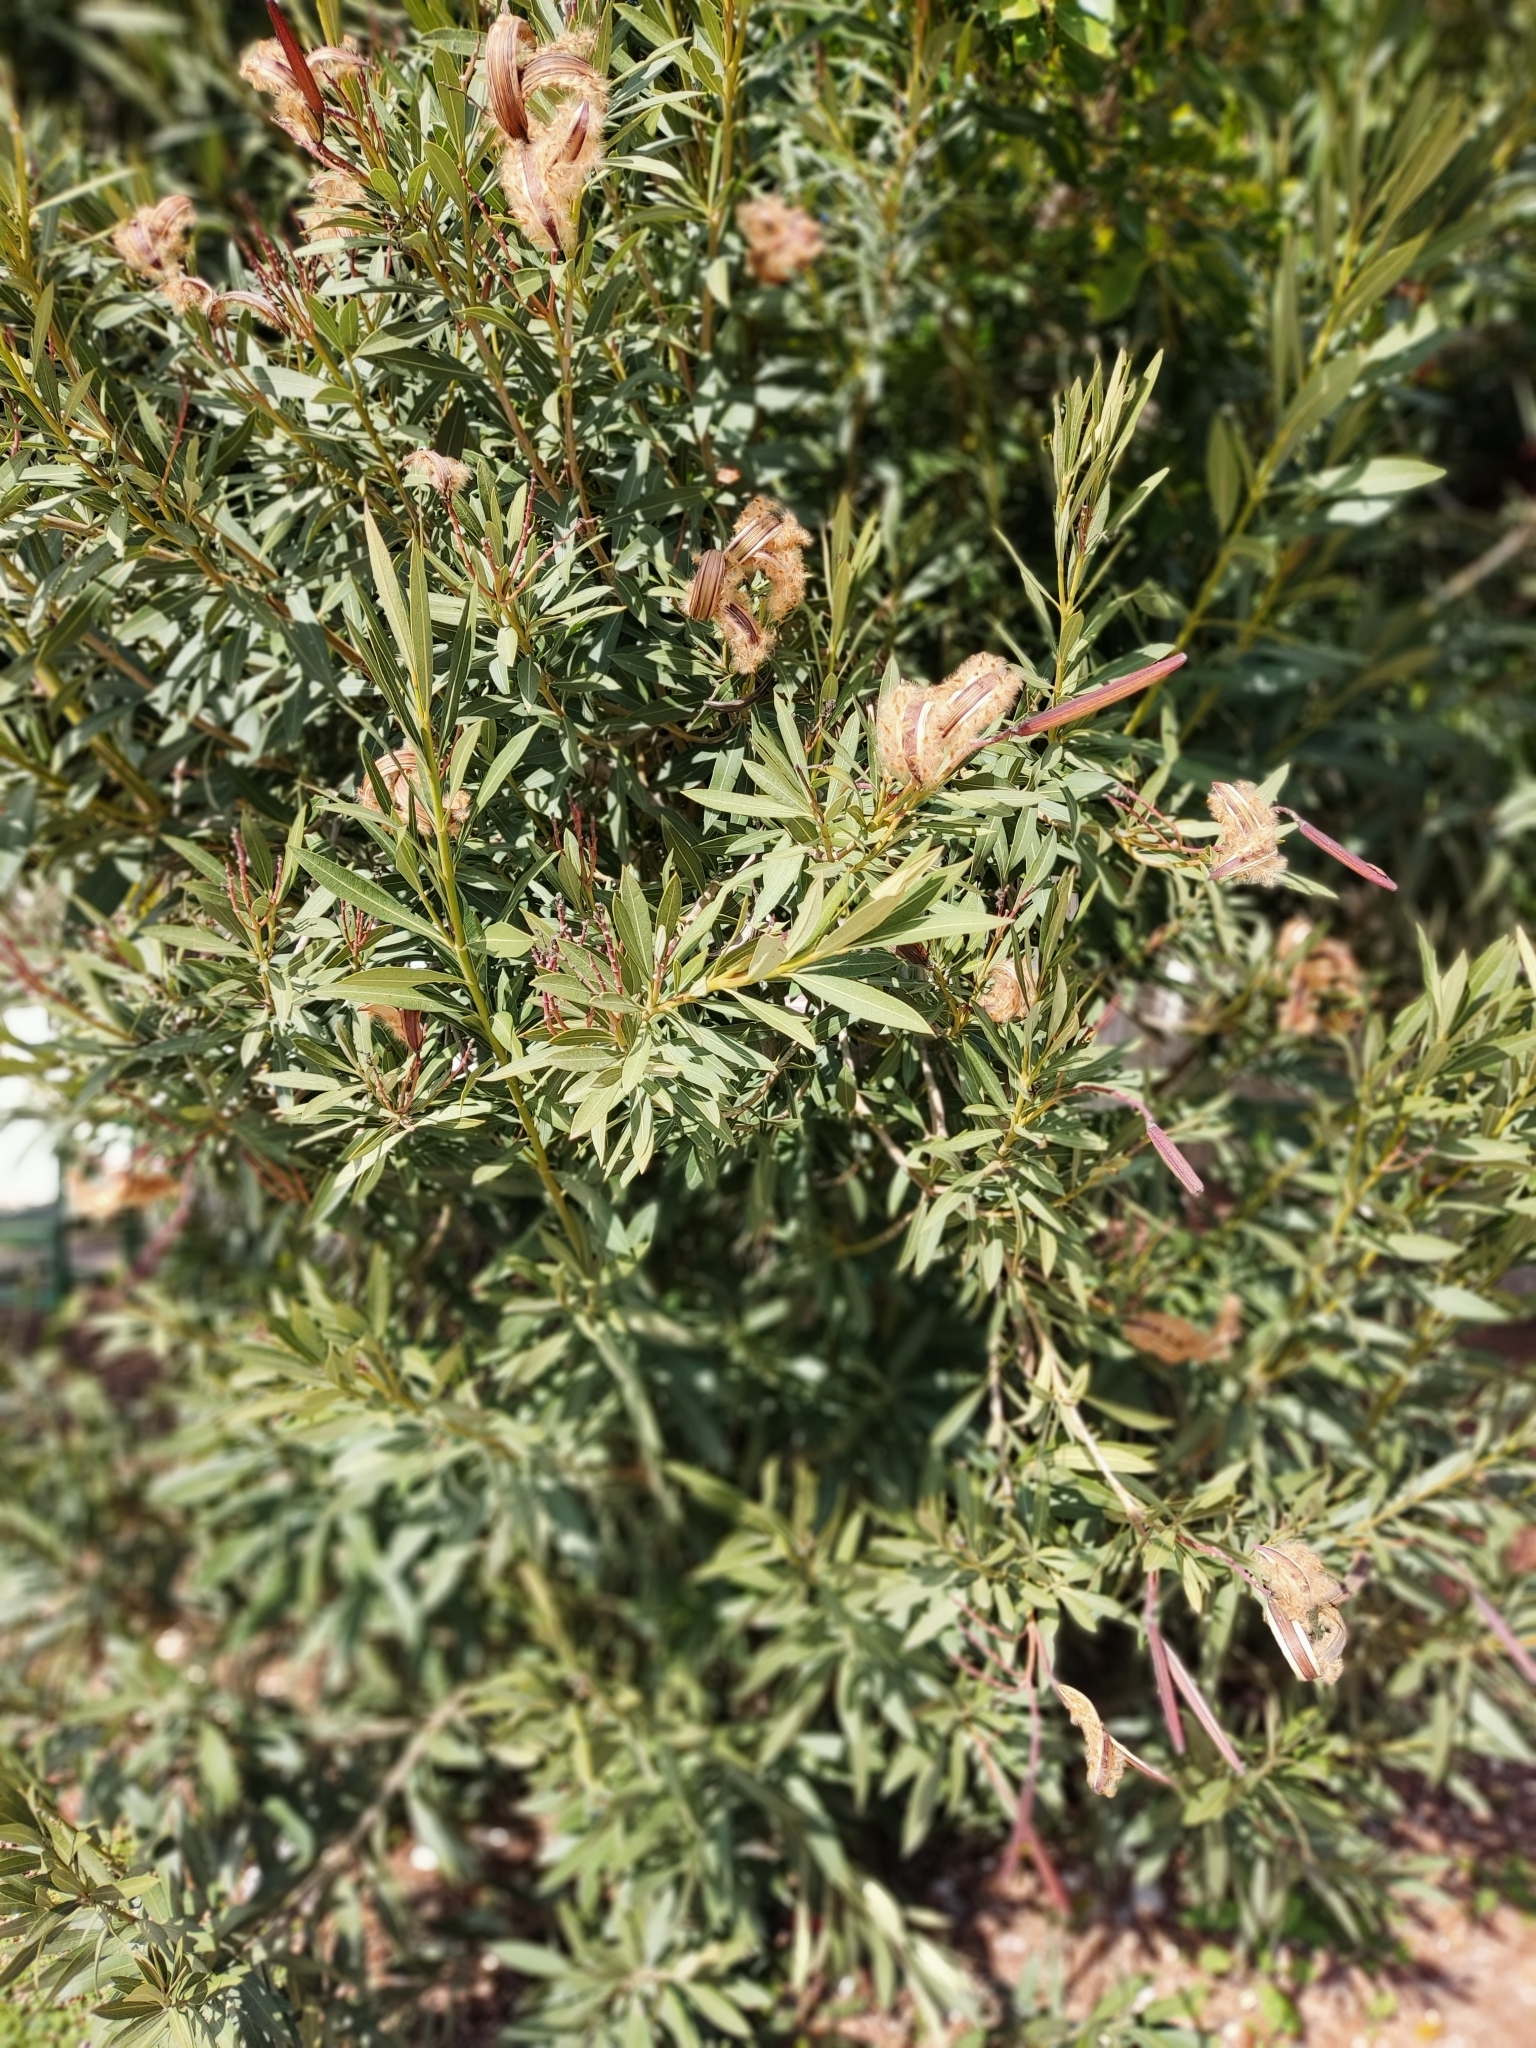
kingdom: Plantae
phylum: Tracheophyta
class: Magnoliopsida
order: Gentianales
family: Apocynaceae
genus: Nerium
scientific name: Nerium oleander
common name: Oleander
